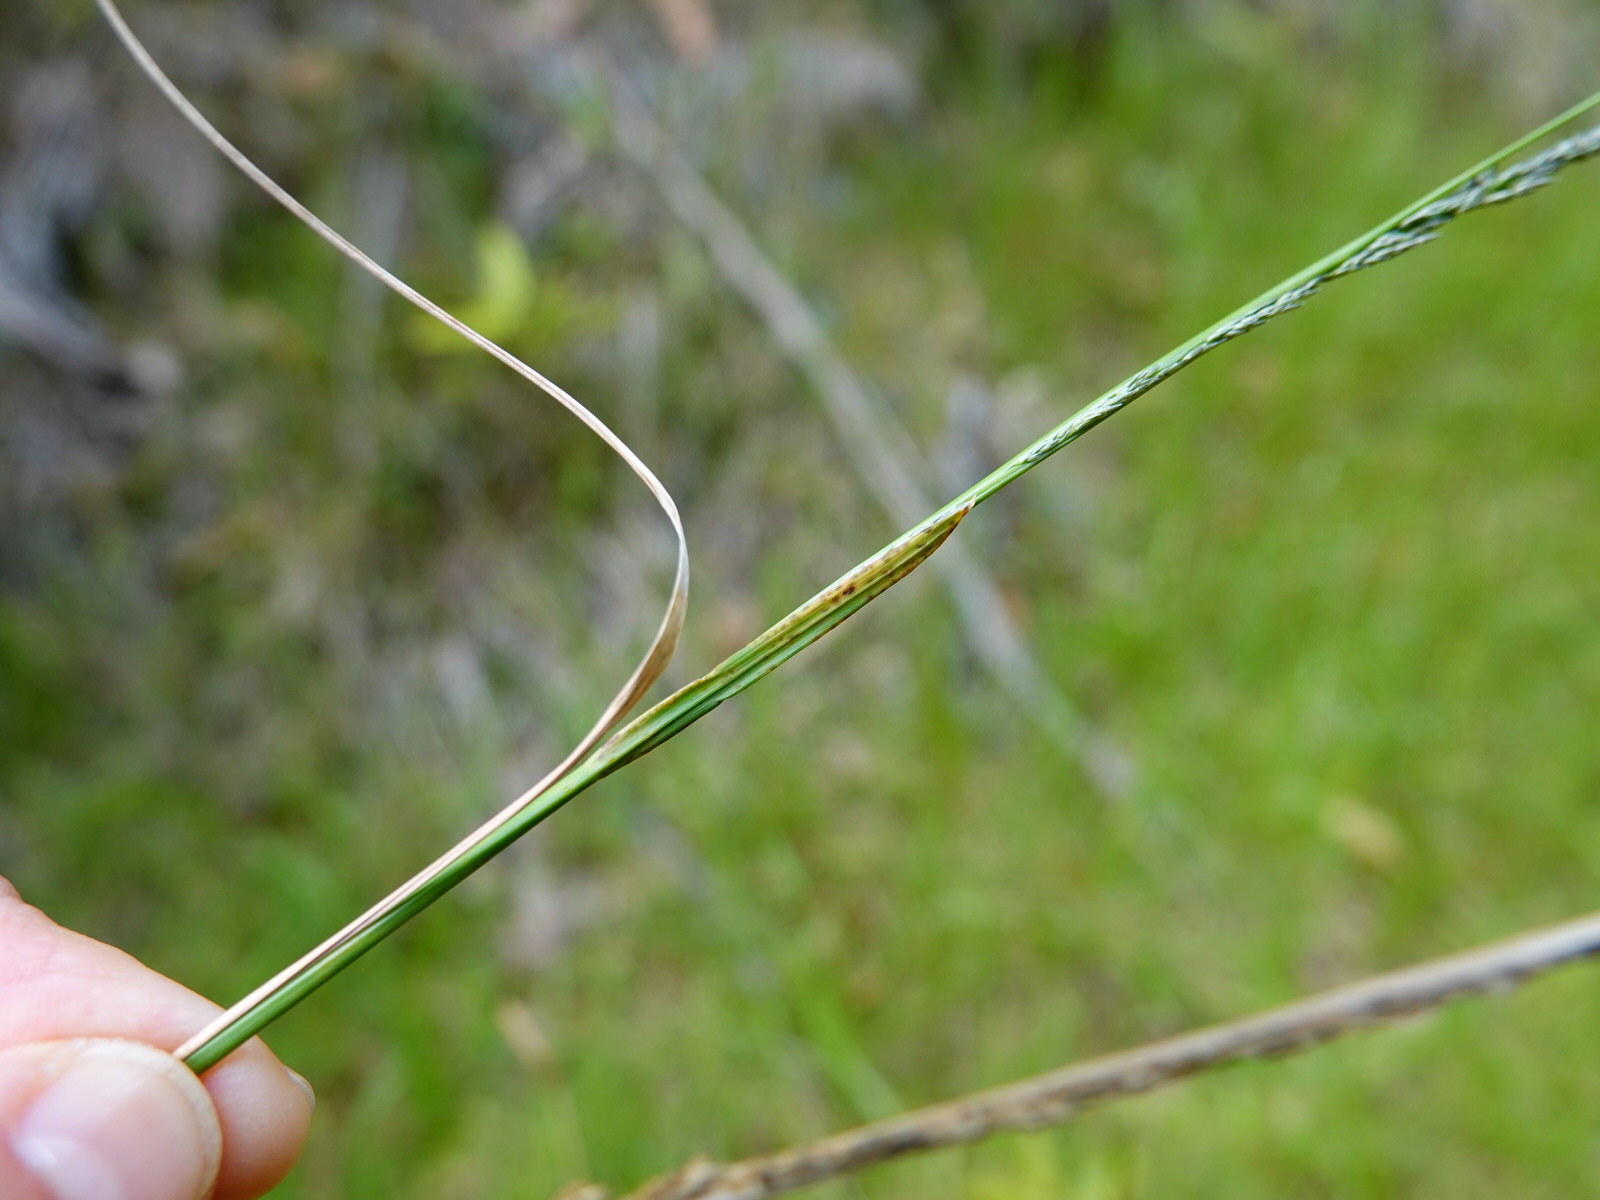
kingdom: Plantae
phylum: Tracheophyta
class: Liliopsida
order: Poales
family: Poaceae
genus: Sporobolus
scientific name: Sporobolus africanus
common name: African dropseed
